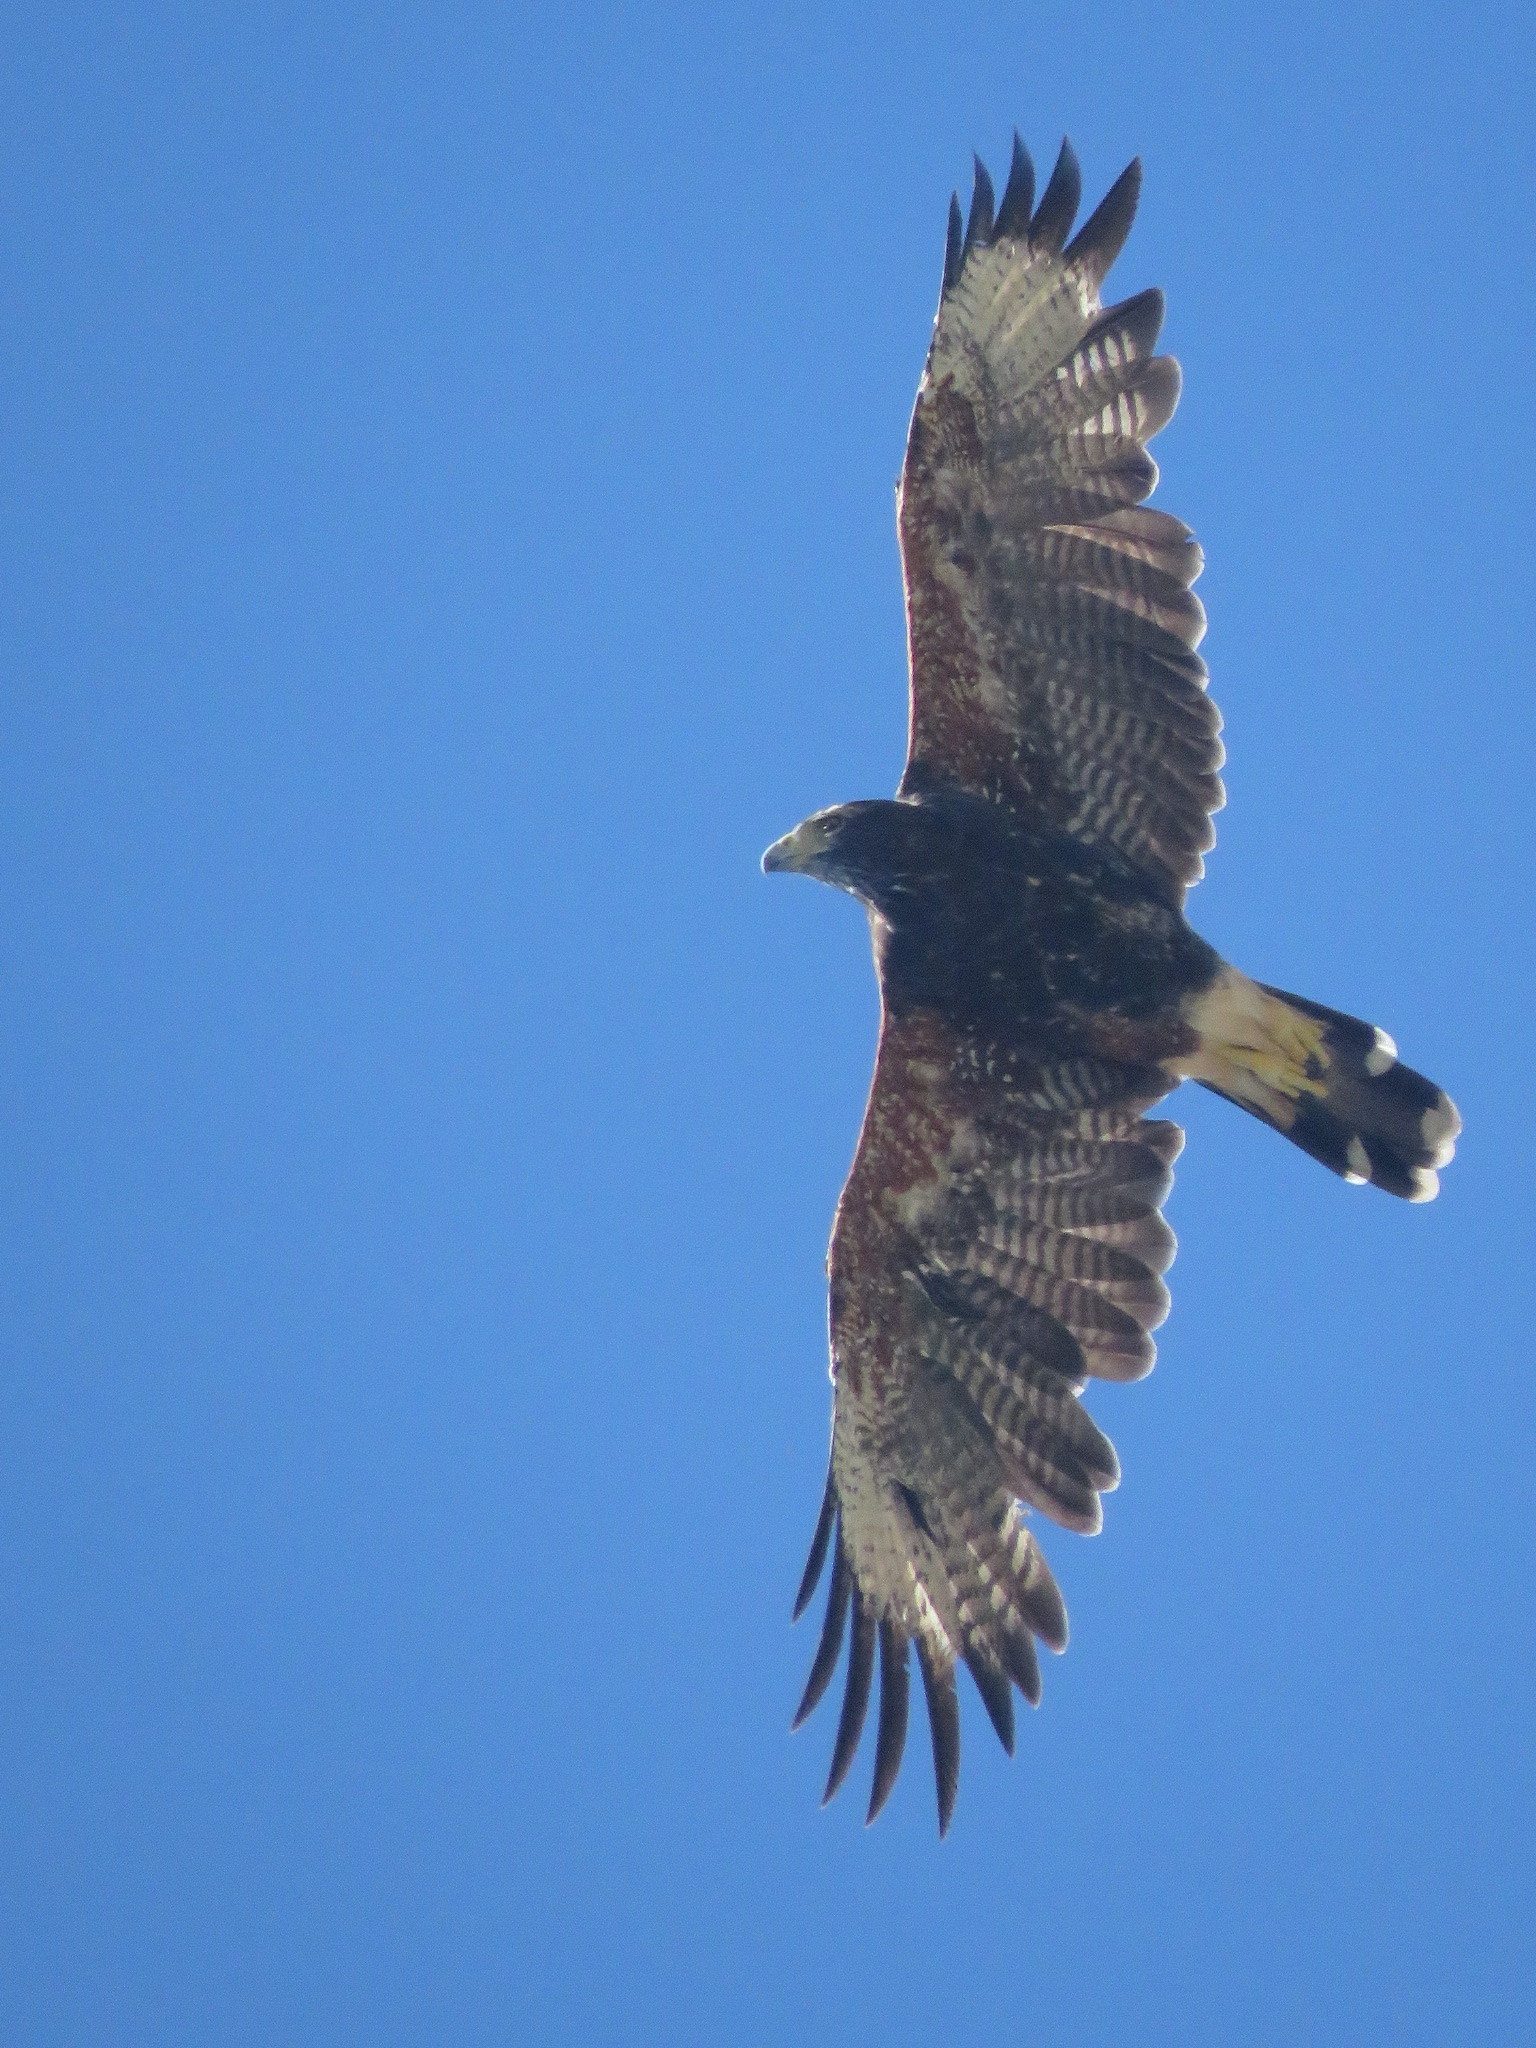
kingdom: Animalia
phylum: Chordata
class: Aves
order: Accipitriformes
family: Accipitridae
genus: Parabuteo
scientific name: Parabuteo unicinctus
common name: Harris's hawk
